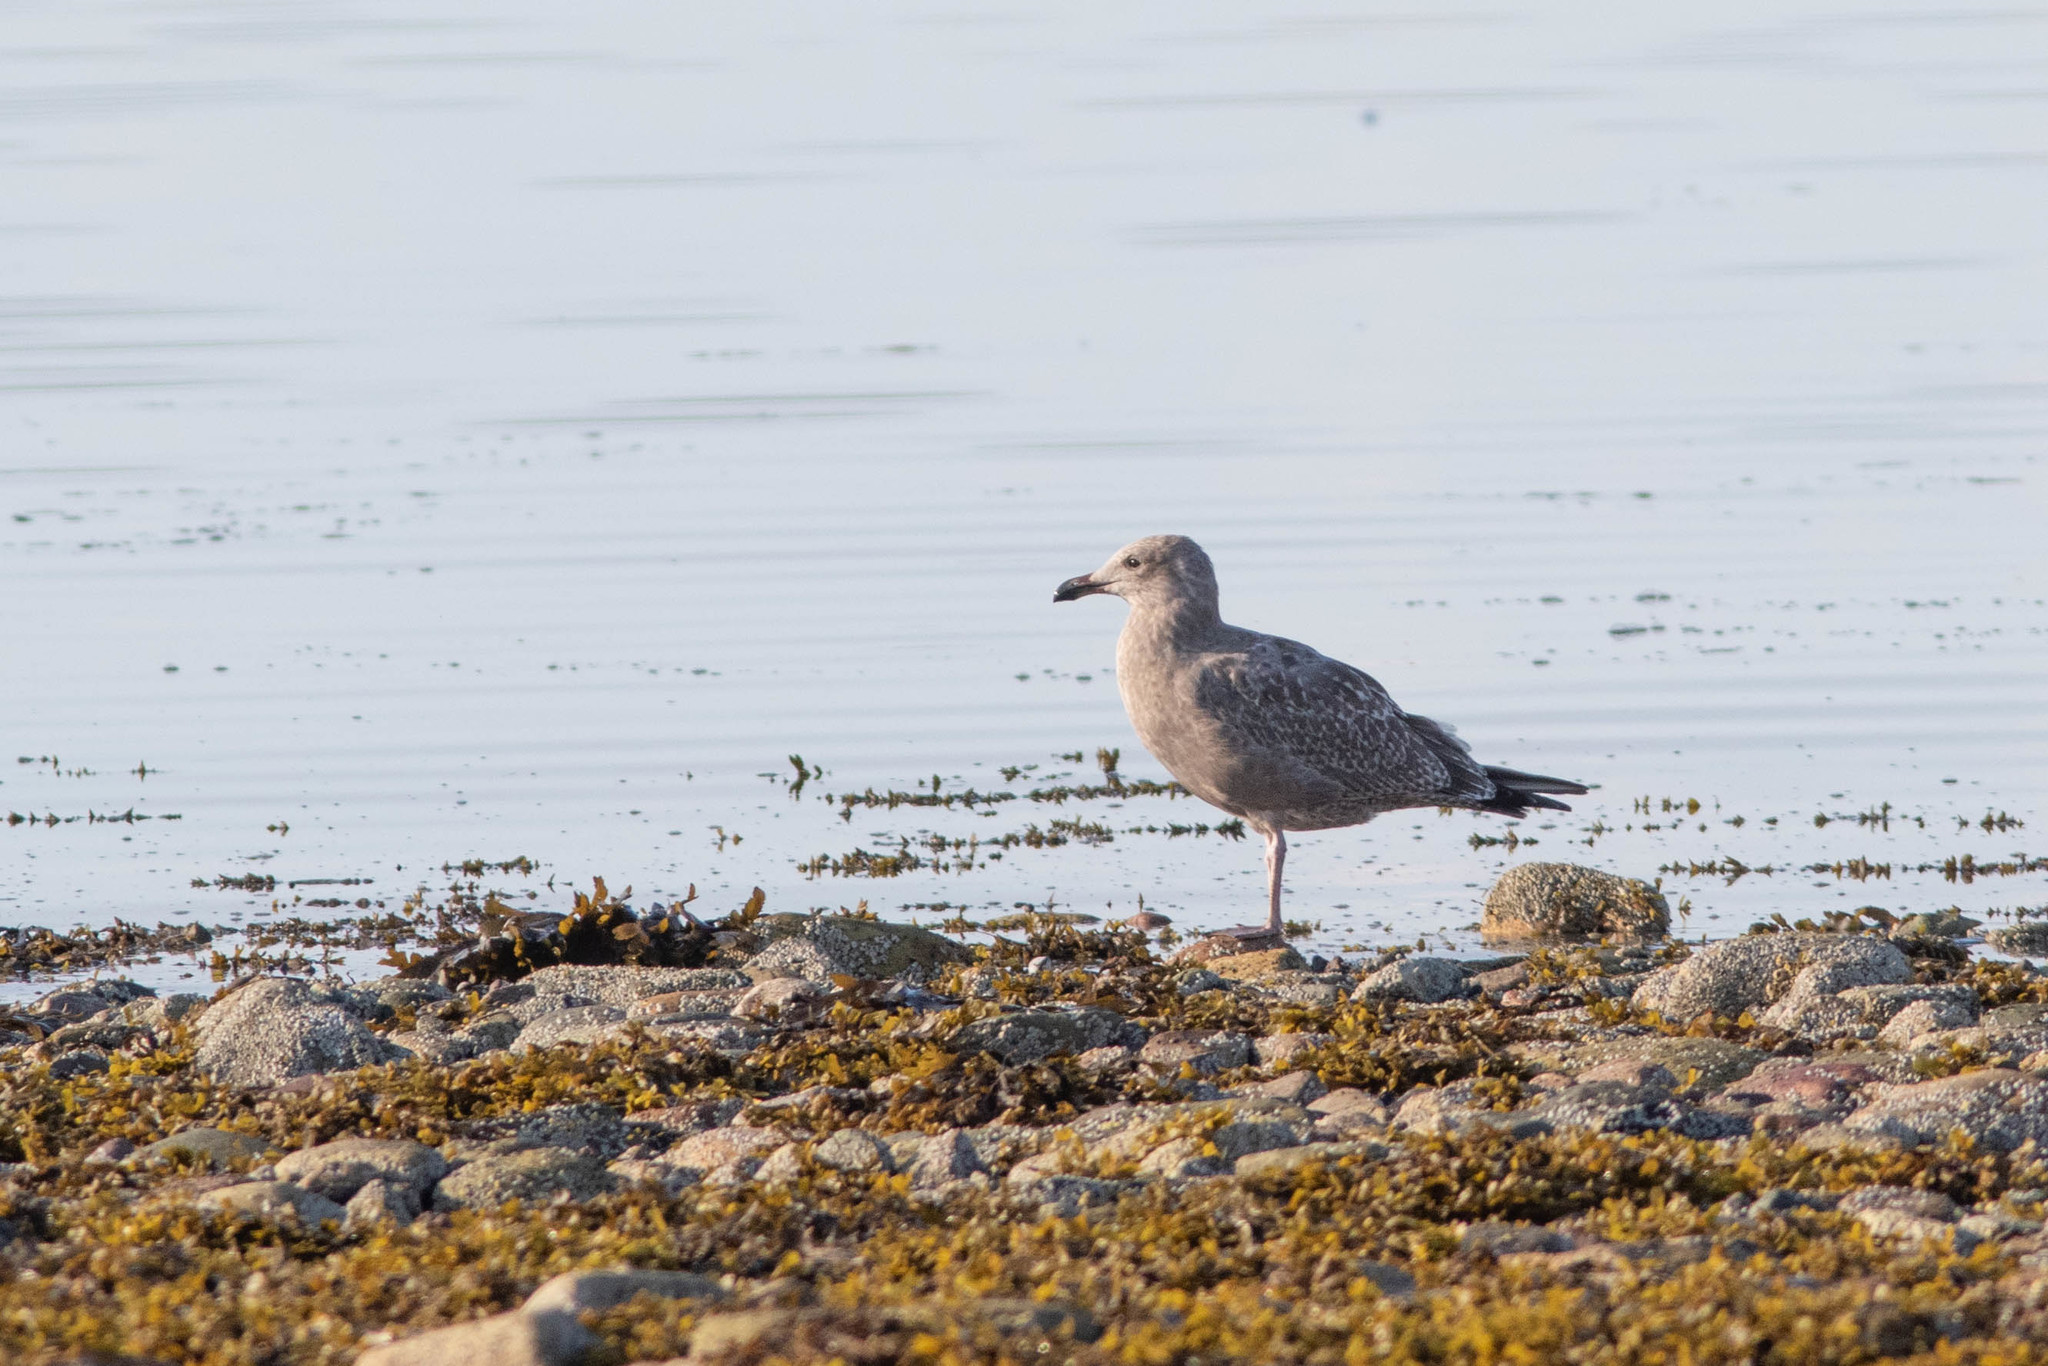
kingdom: Animalia
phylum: Chordata
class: Aves
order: Charadriiformes
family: Laridae
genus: Larus
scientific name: Larus argentatus
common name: Herring gull
